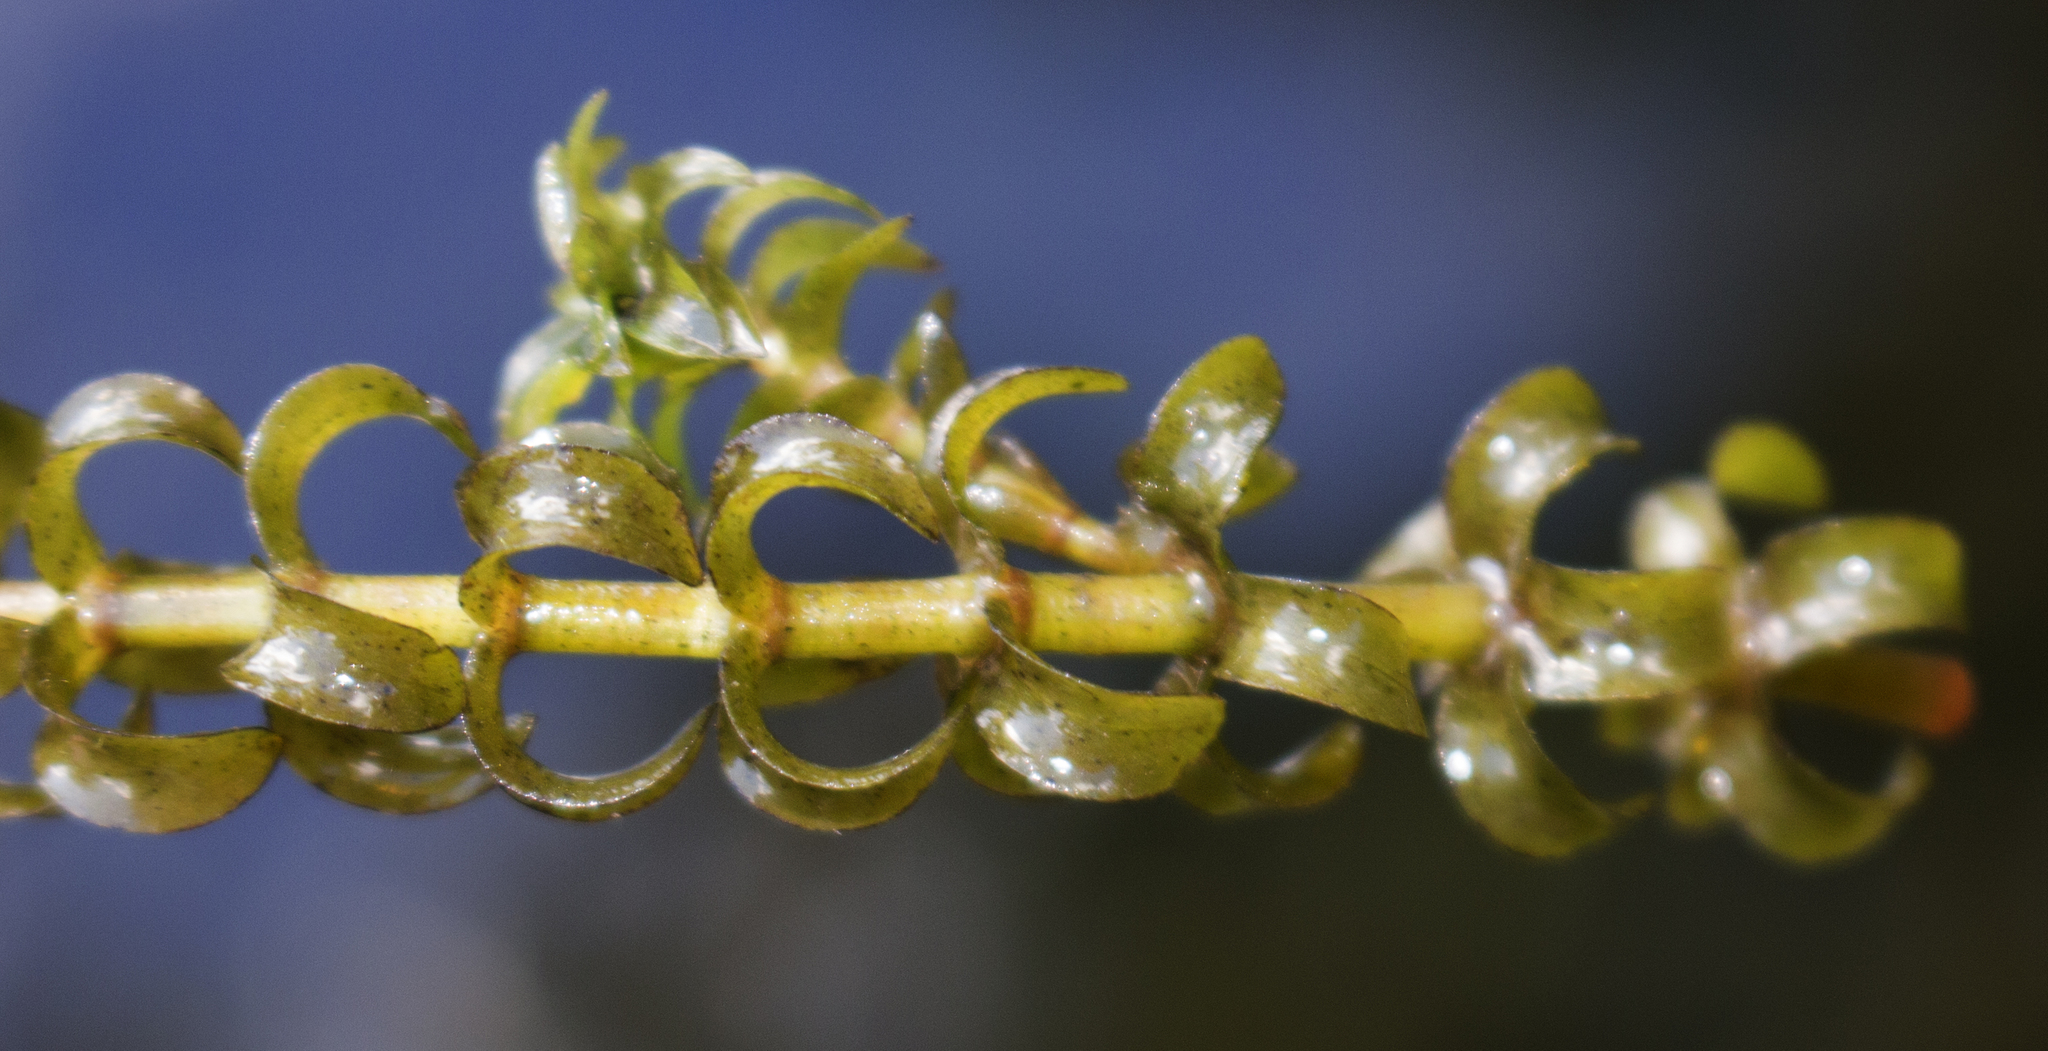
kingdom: Plantae
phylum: Tracheophyta
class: Liliopsida
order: Alismatales
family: Hydrocharitaceae
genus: Elodea
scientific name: Elodea canadensis
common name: Canadian waterweed
